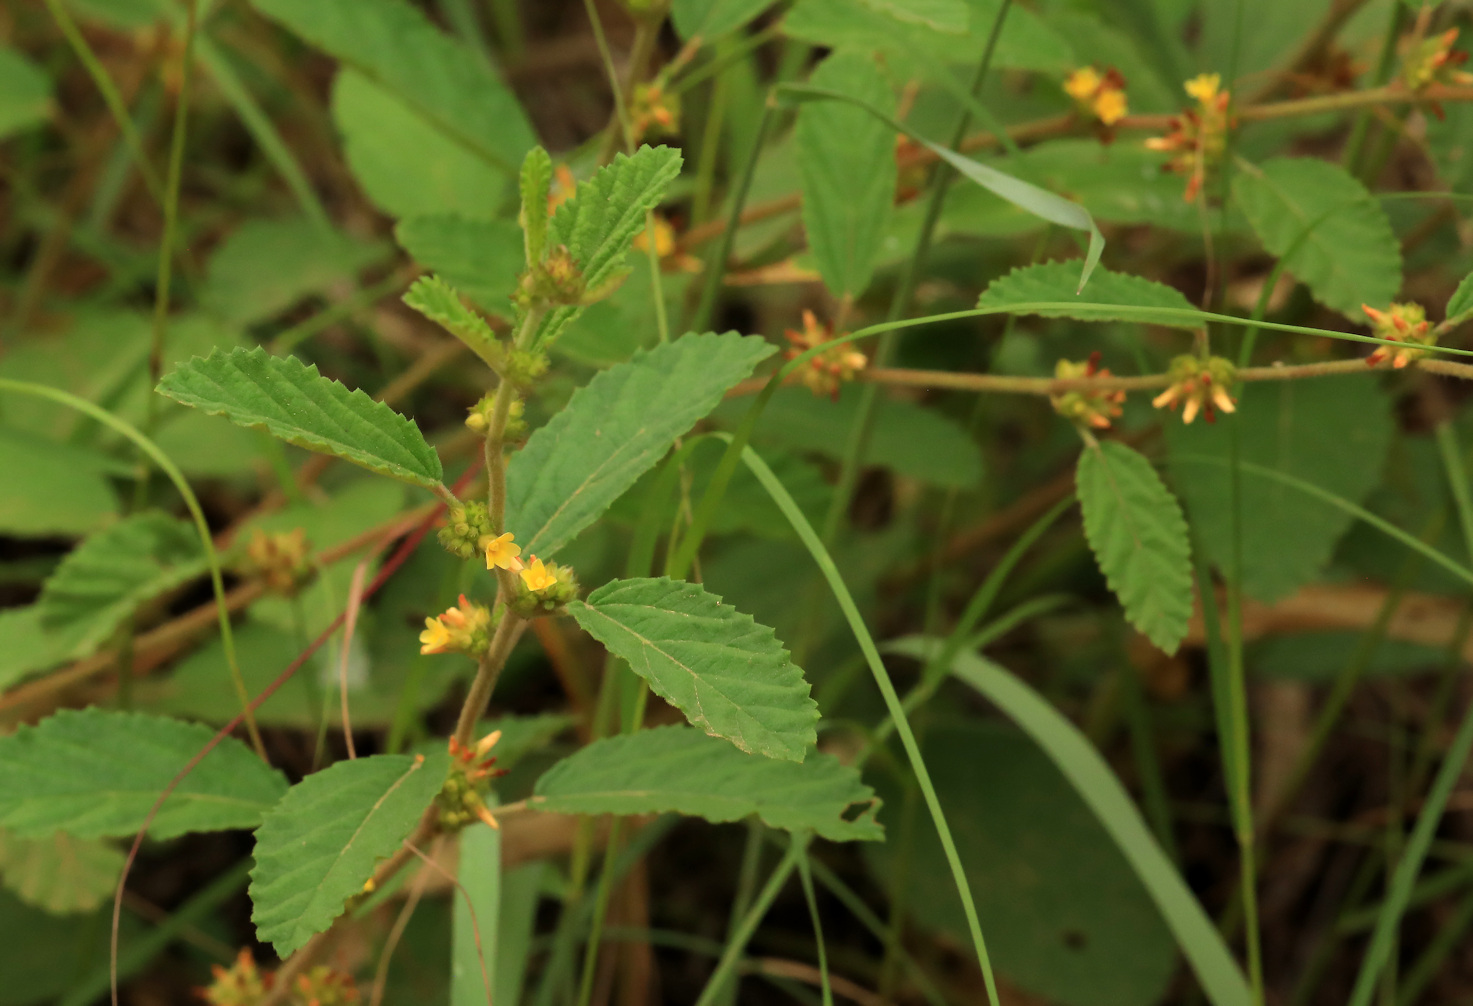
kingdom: Plantae
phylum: Tracheophyta
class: Magnoliopsida
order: Malvales
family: Malvaceae
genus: Waltheria
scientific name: Waltheria indica
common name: Leather-coat
